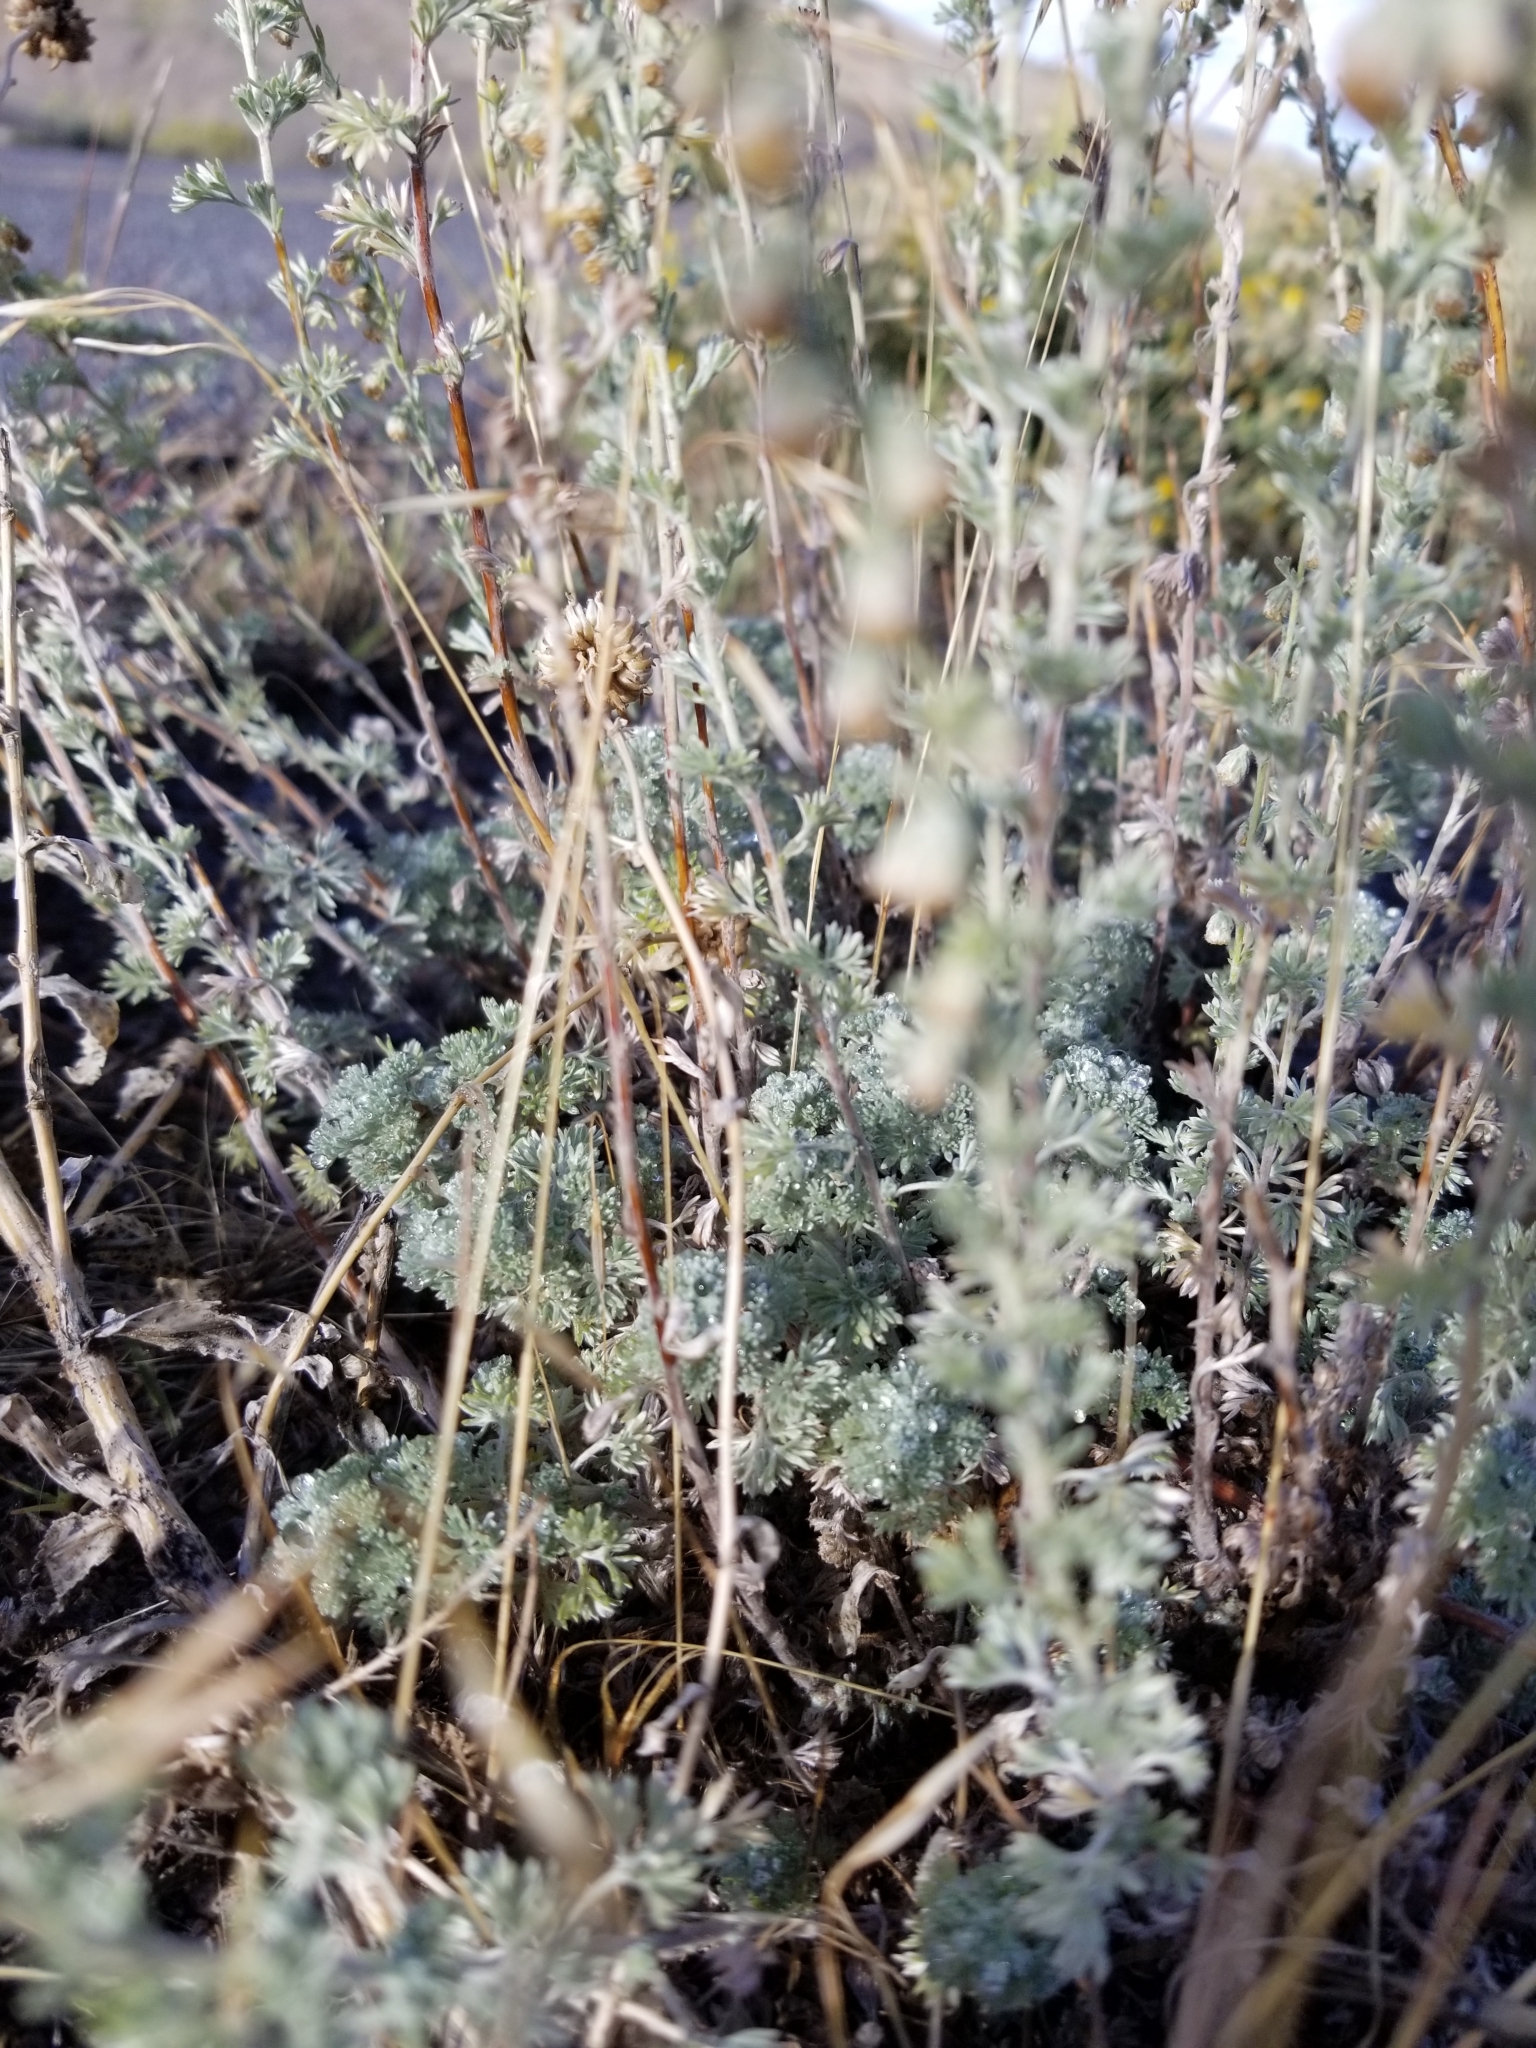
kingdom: Plantae
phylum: Tracheophyta
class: Magnoliopsida
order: Asterales
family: Asteraceae
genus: Artemisia
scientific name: Artemisia frigida
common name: Prairie sagewort
